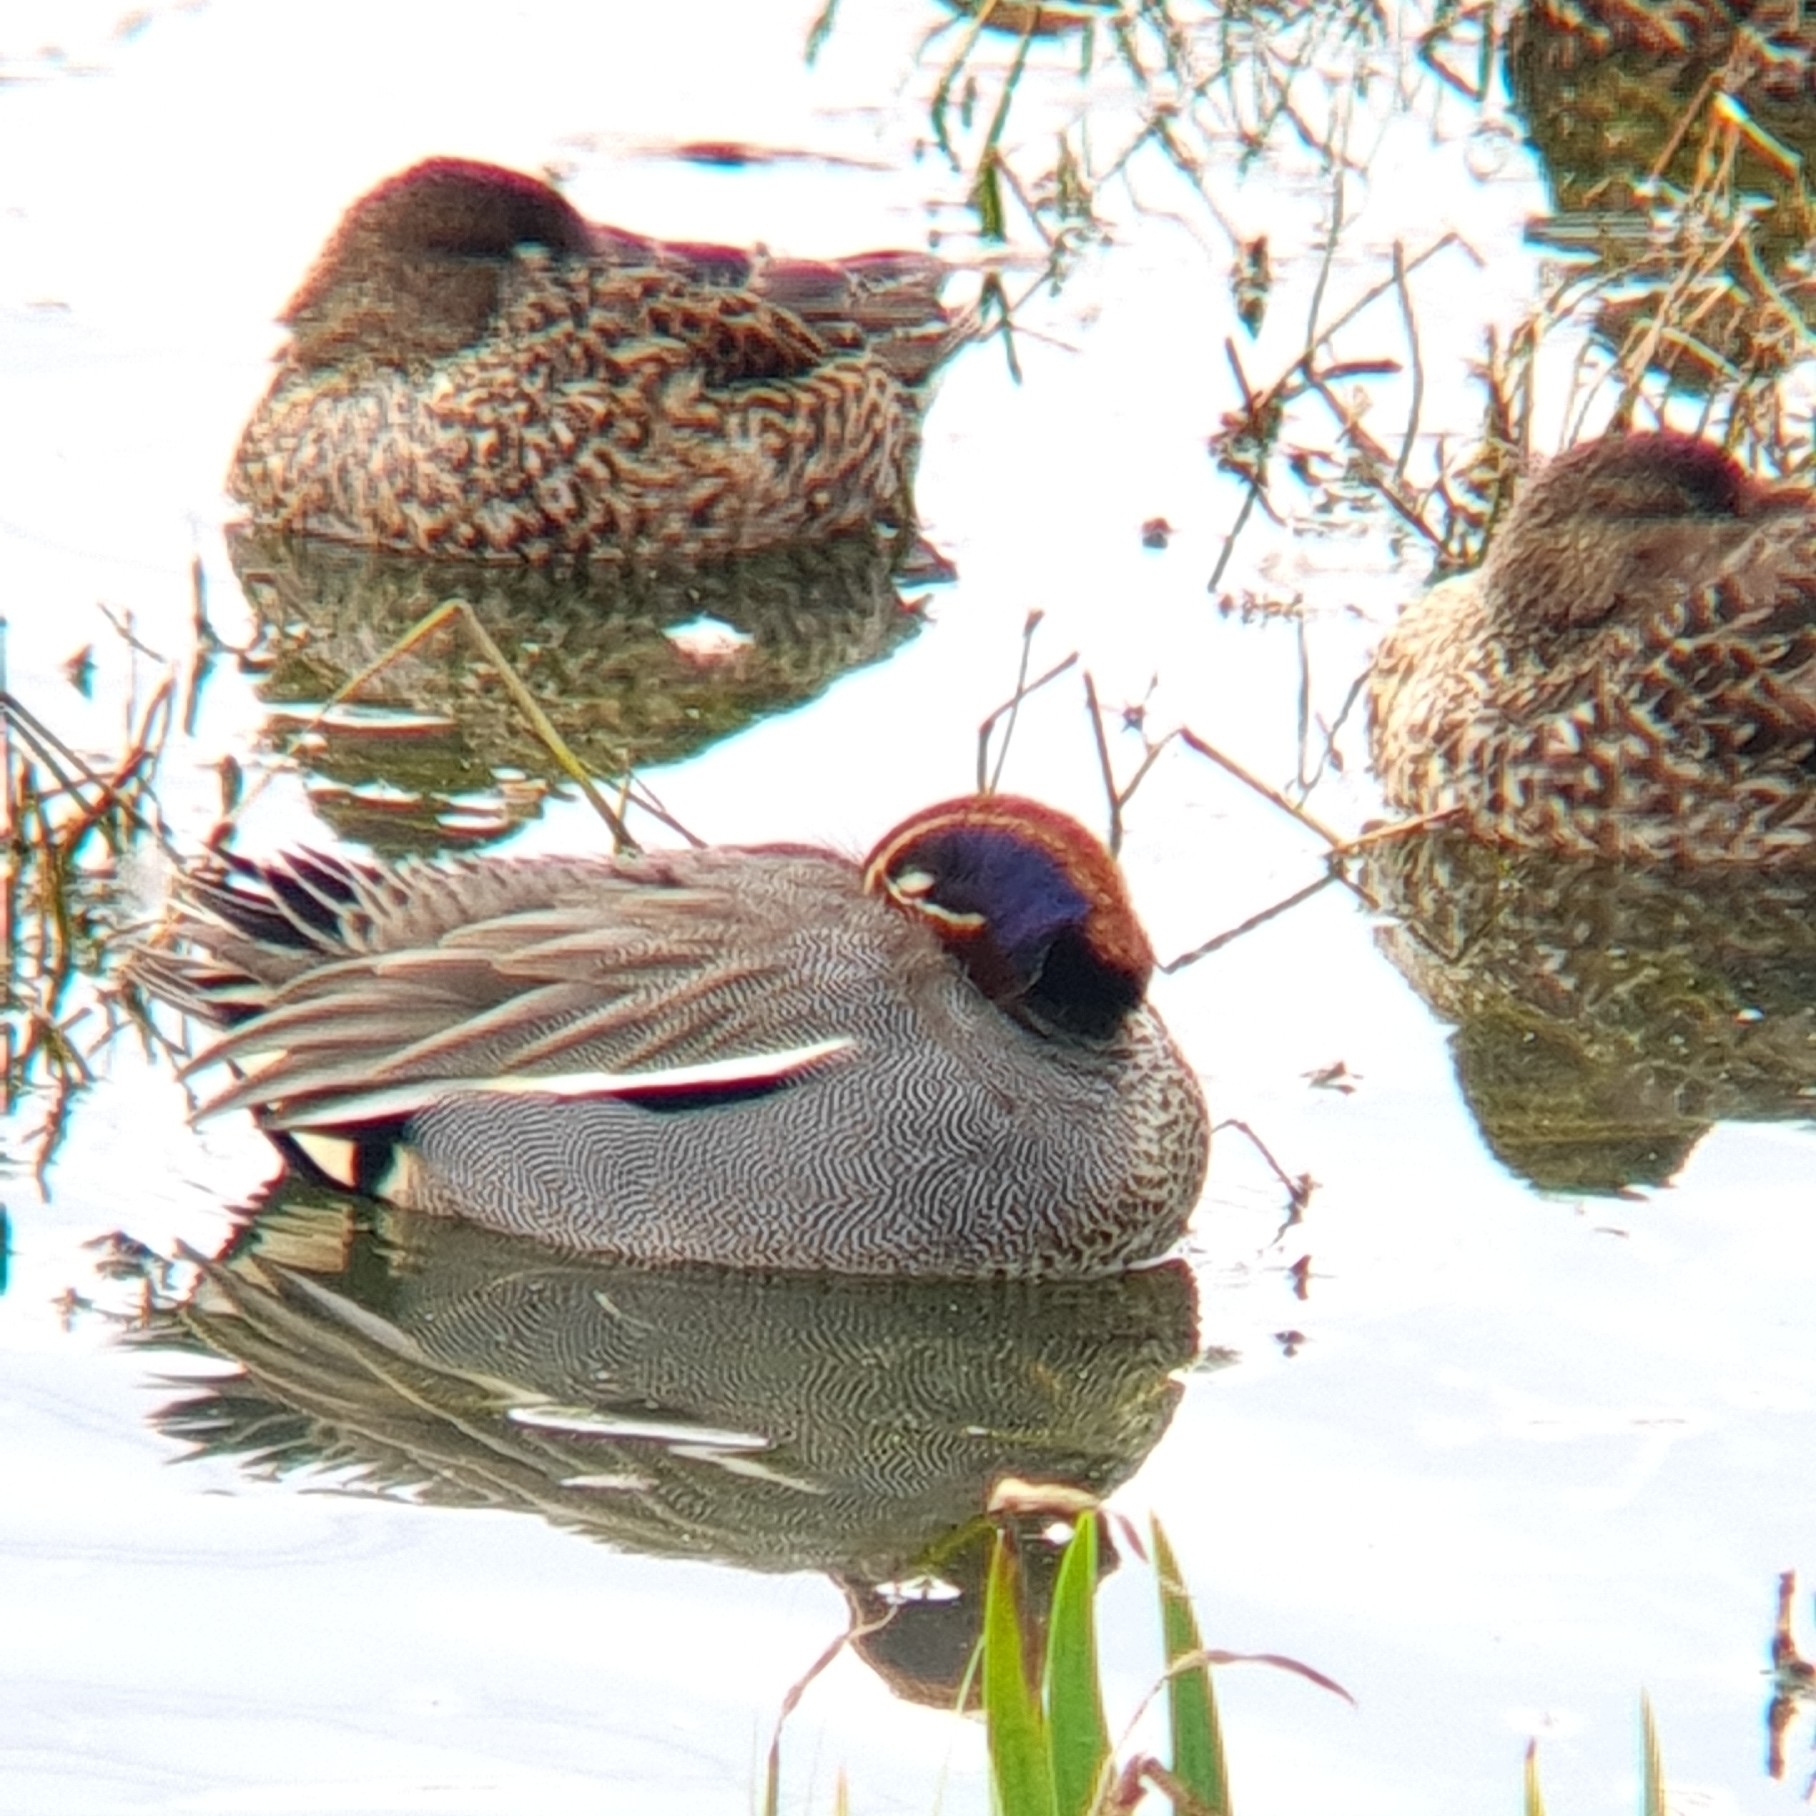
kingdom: Animalia
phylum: Chordata
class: Aves
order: Anseriformes
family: Anatidae
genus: Anas
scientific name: Anas crecca
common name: Eurasian teal
